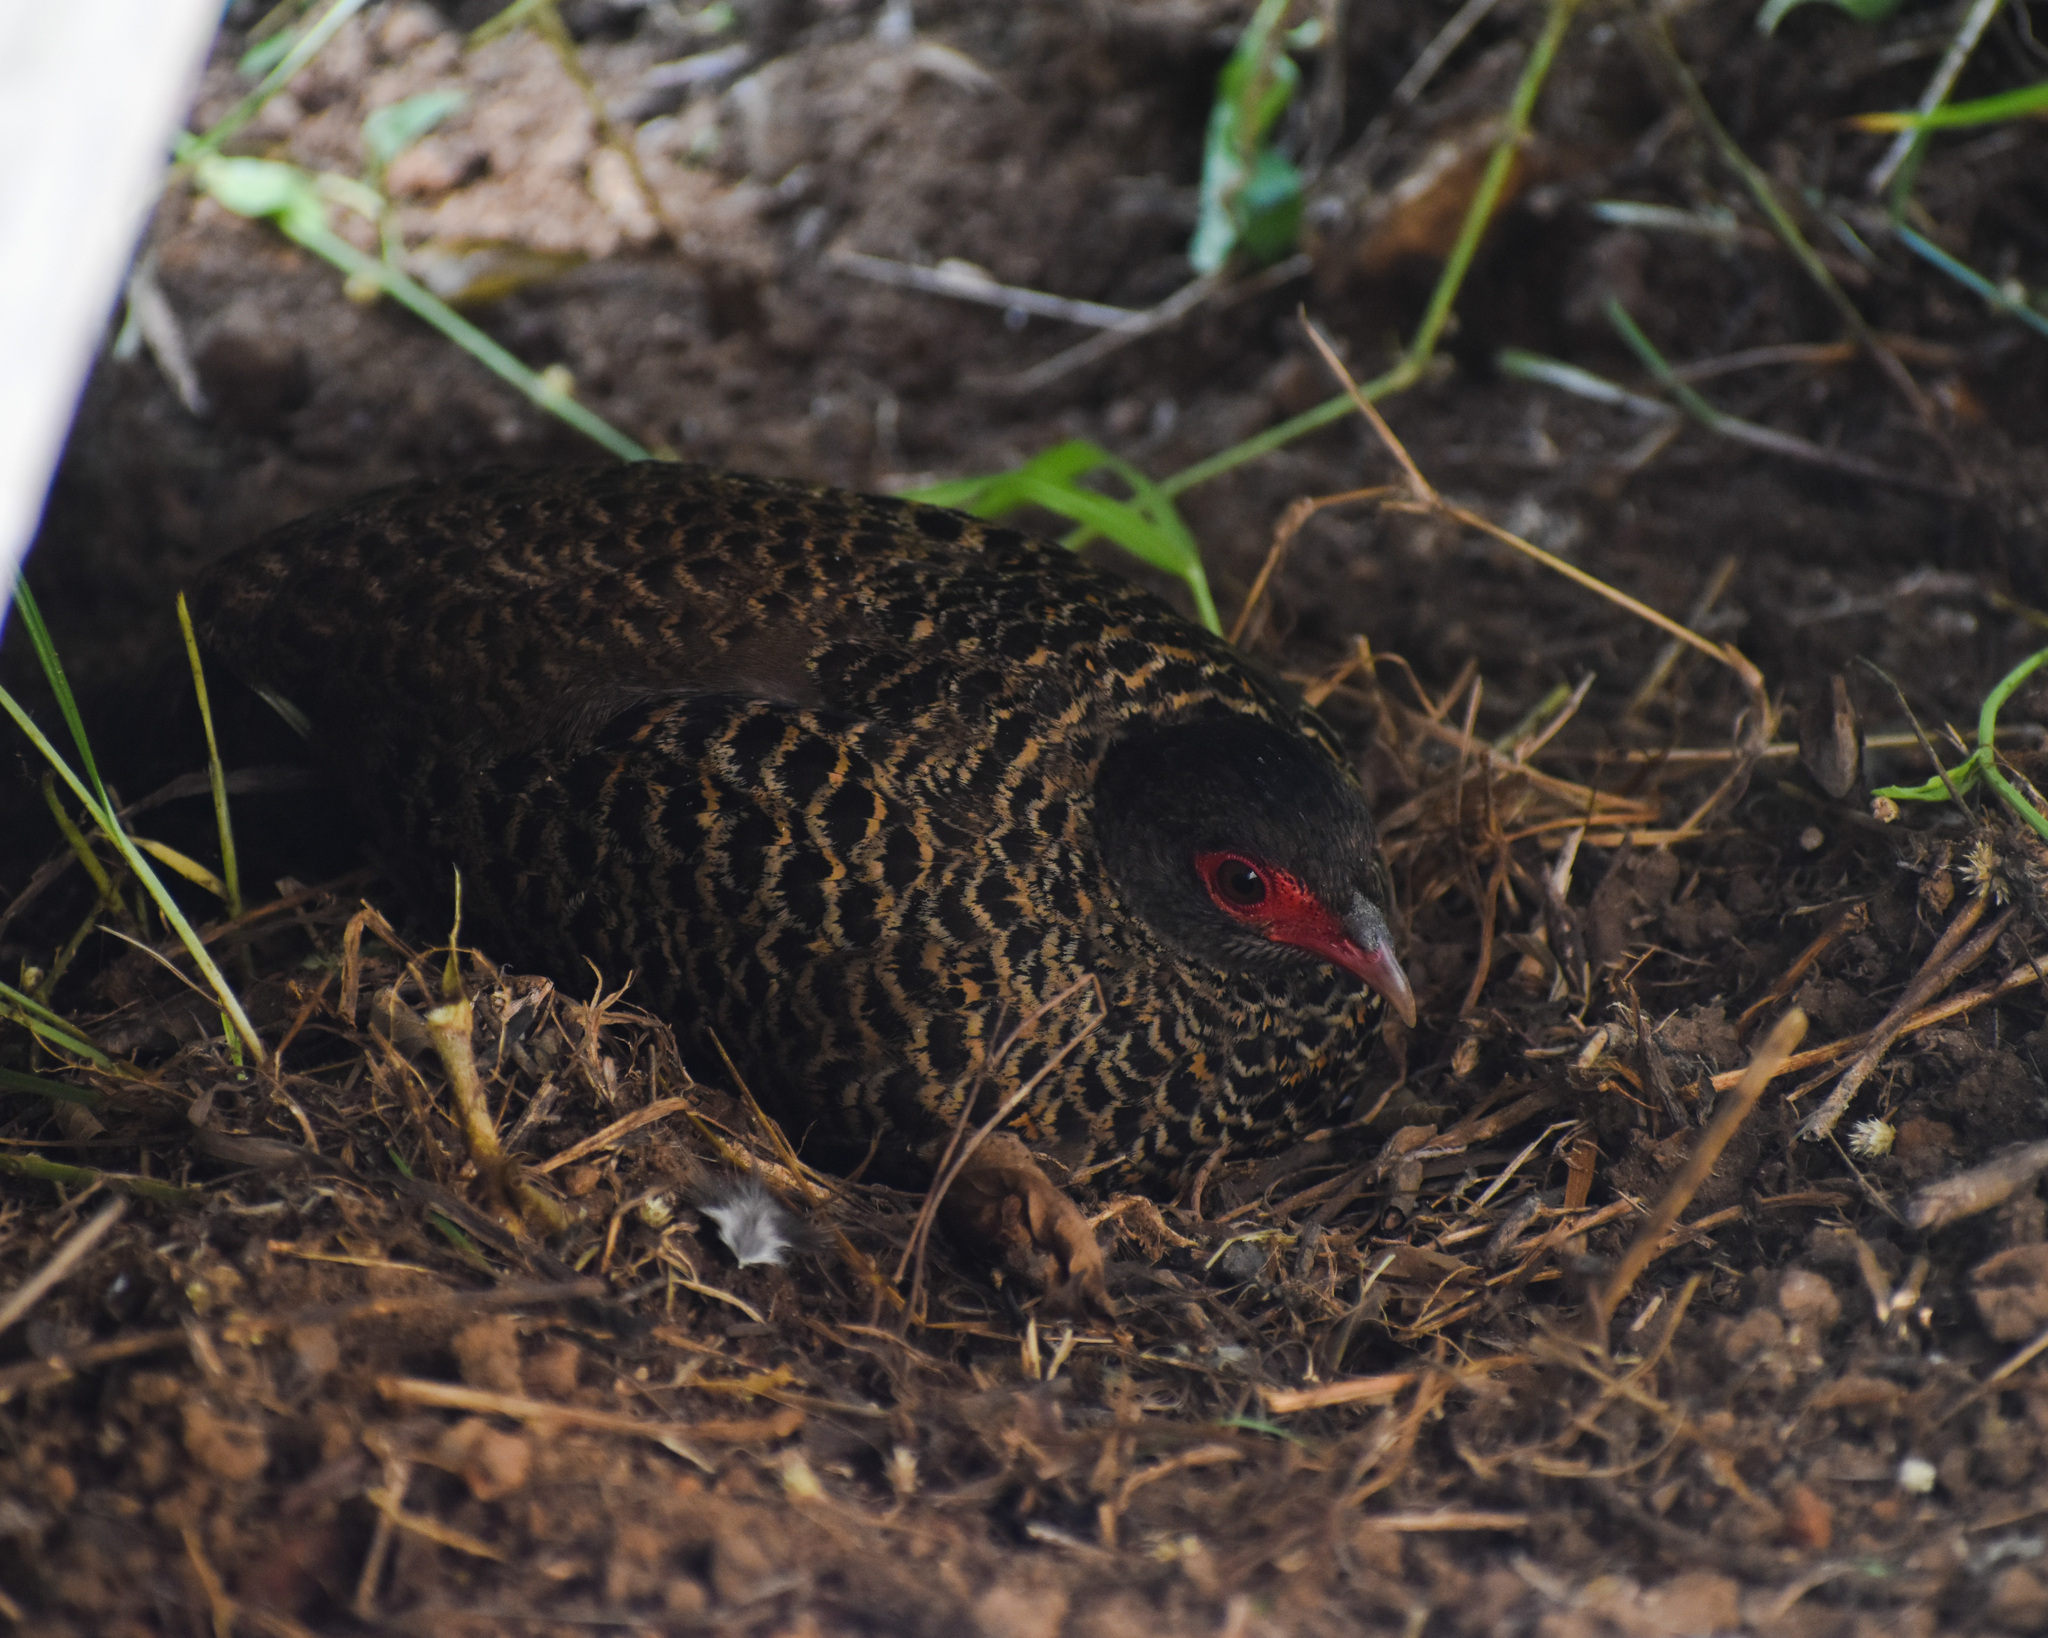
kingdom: Animalia
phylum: Chordata
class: Aves
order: Galliformes
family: Phasianidae
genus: Galloperdix
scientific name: Galloperdix spadicea
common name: Red spurfowl
